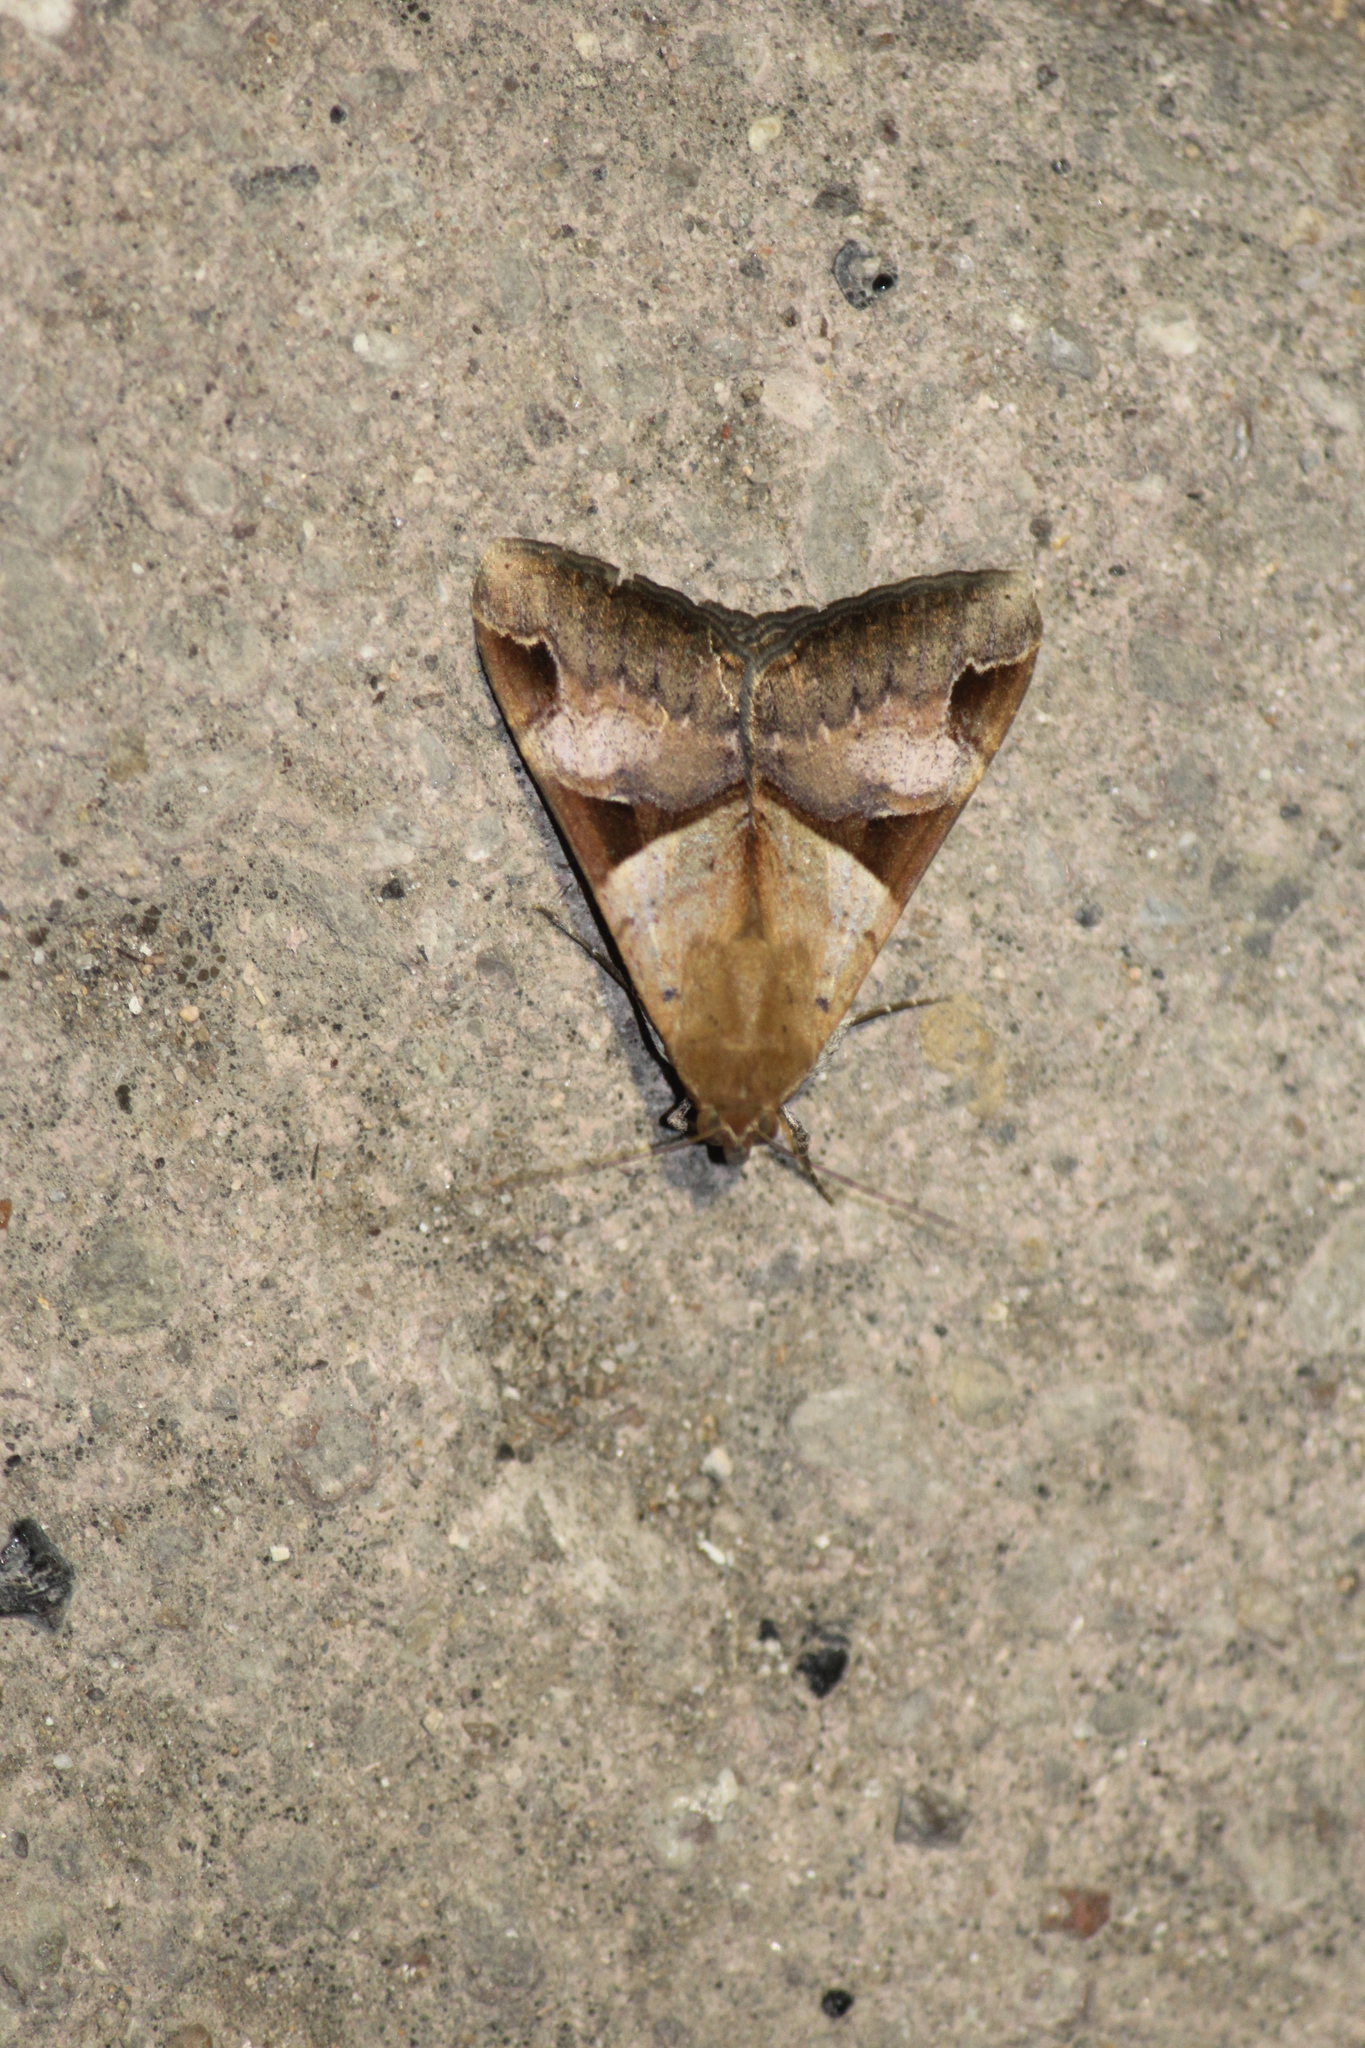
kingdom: Animalia
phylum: Arthropoda
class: Insecta
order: Lepidoptera
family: Erebidae
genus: Melipotis
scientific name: Melipotis fasciolaris
